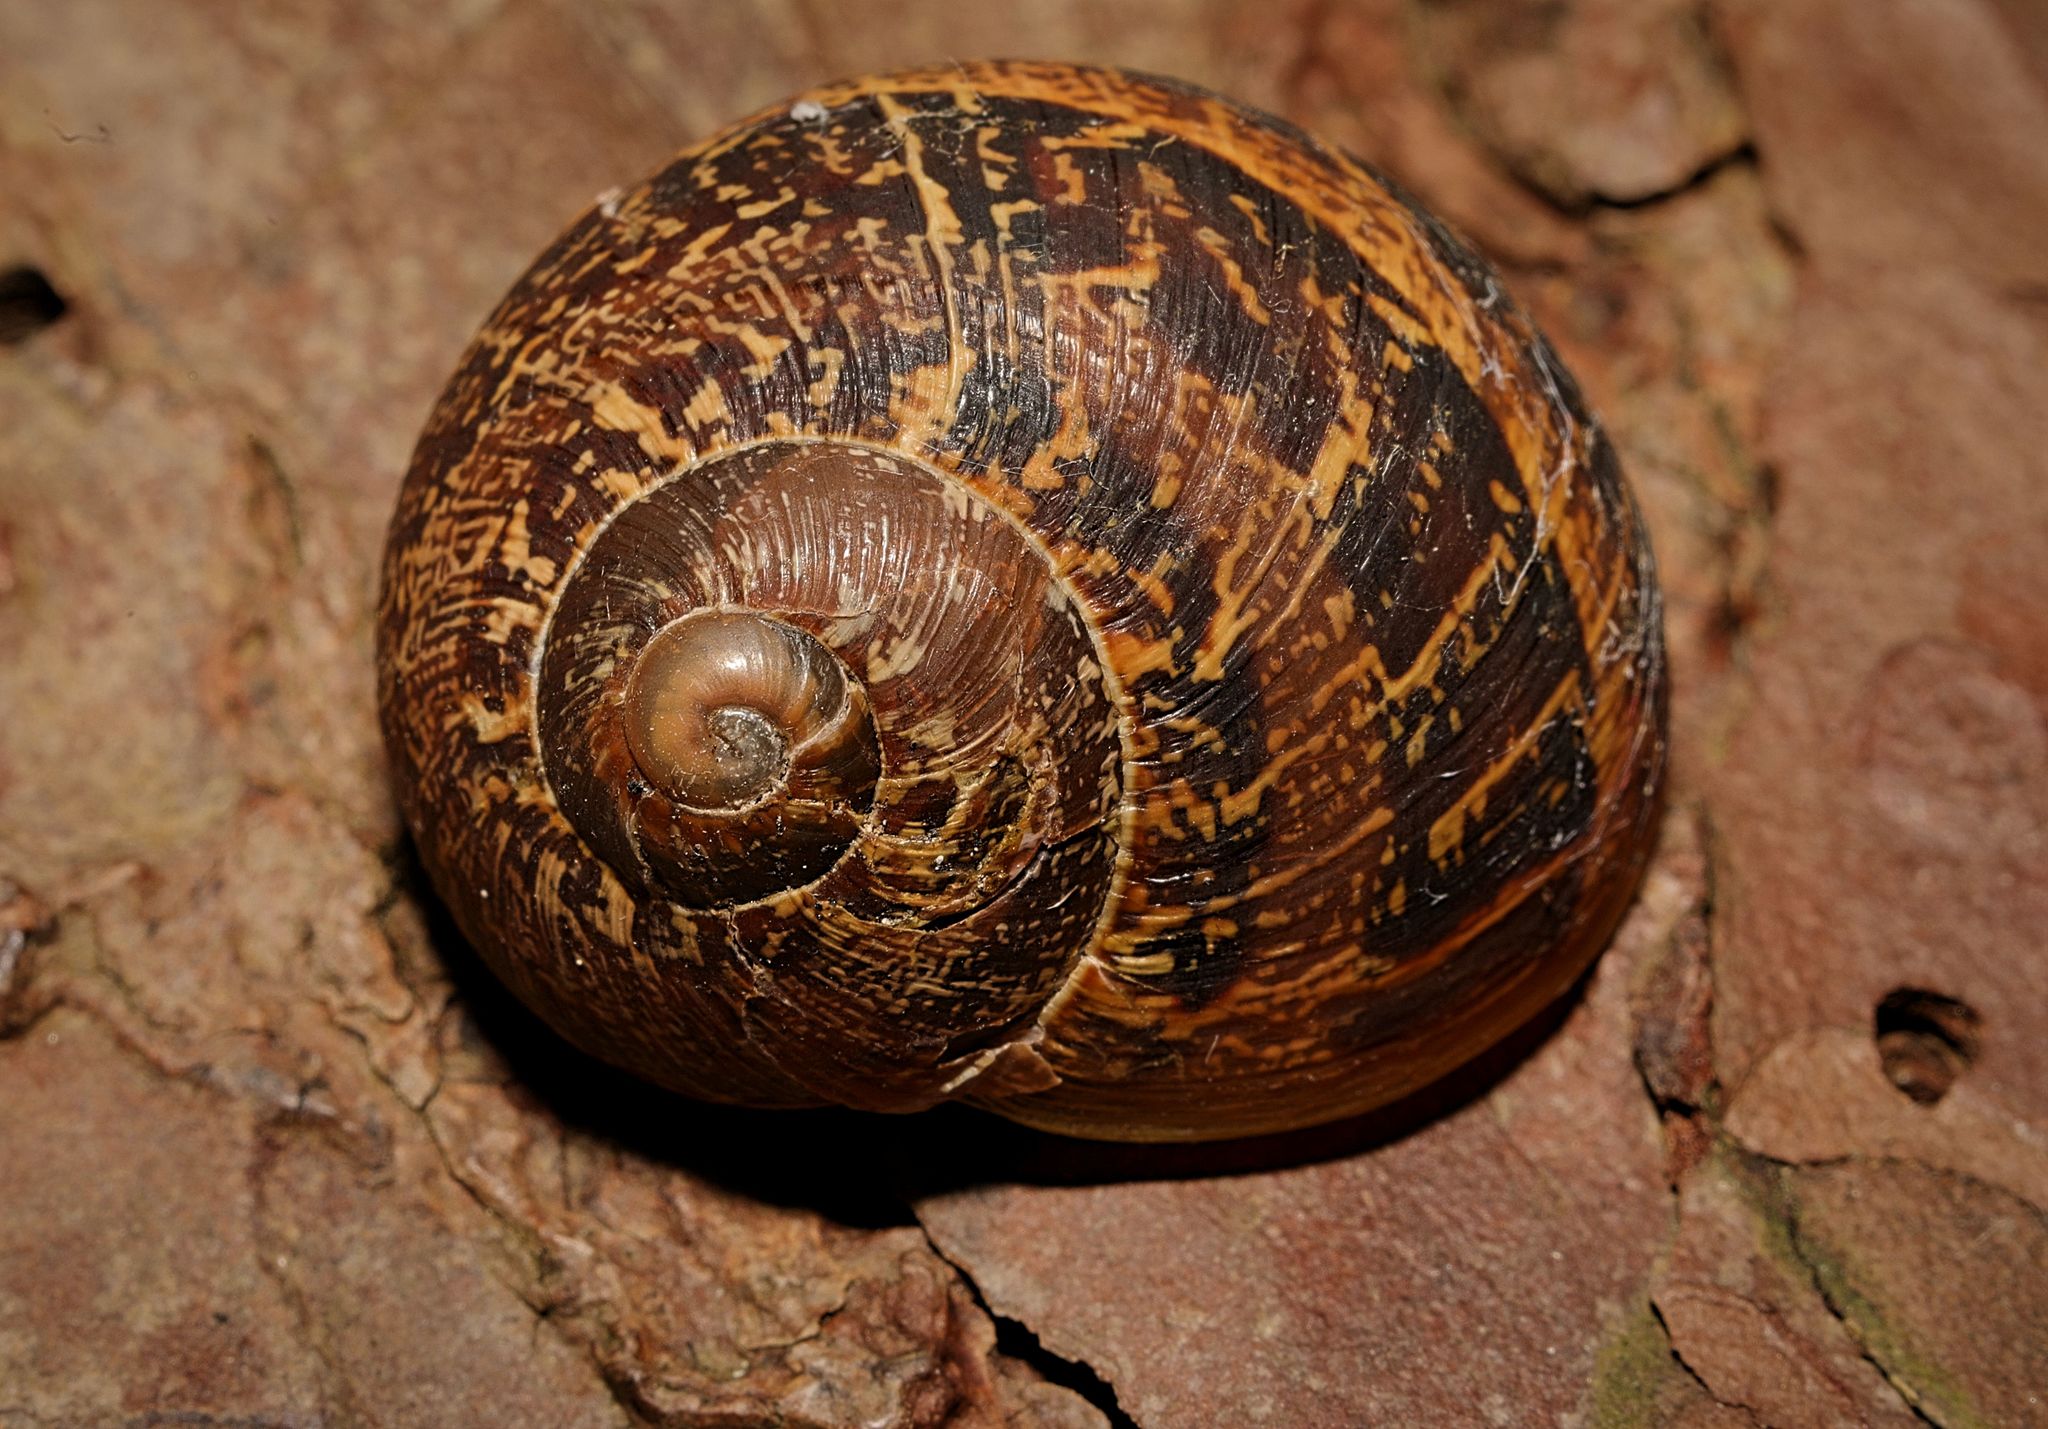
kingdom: Animalia
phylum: Mollusca
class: Gastropoda
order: Stylommatophora
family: Helicidae
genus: Cornu
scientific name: Cornu aspersum
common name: Brown garden snail
